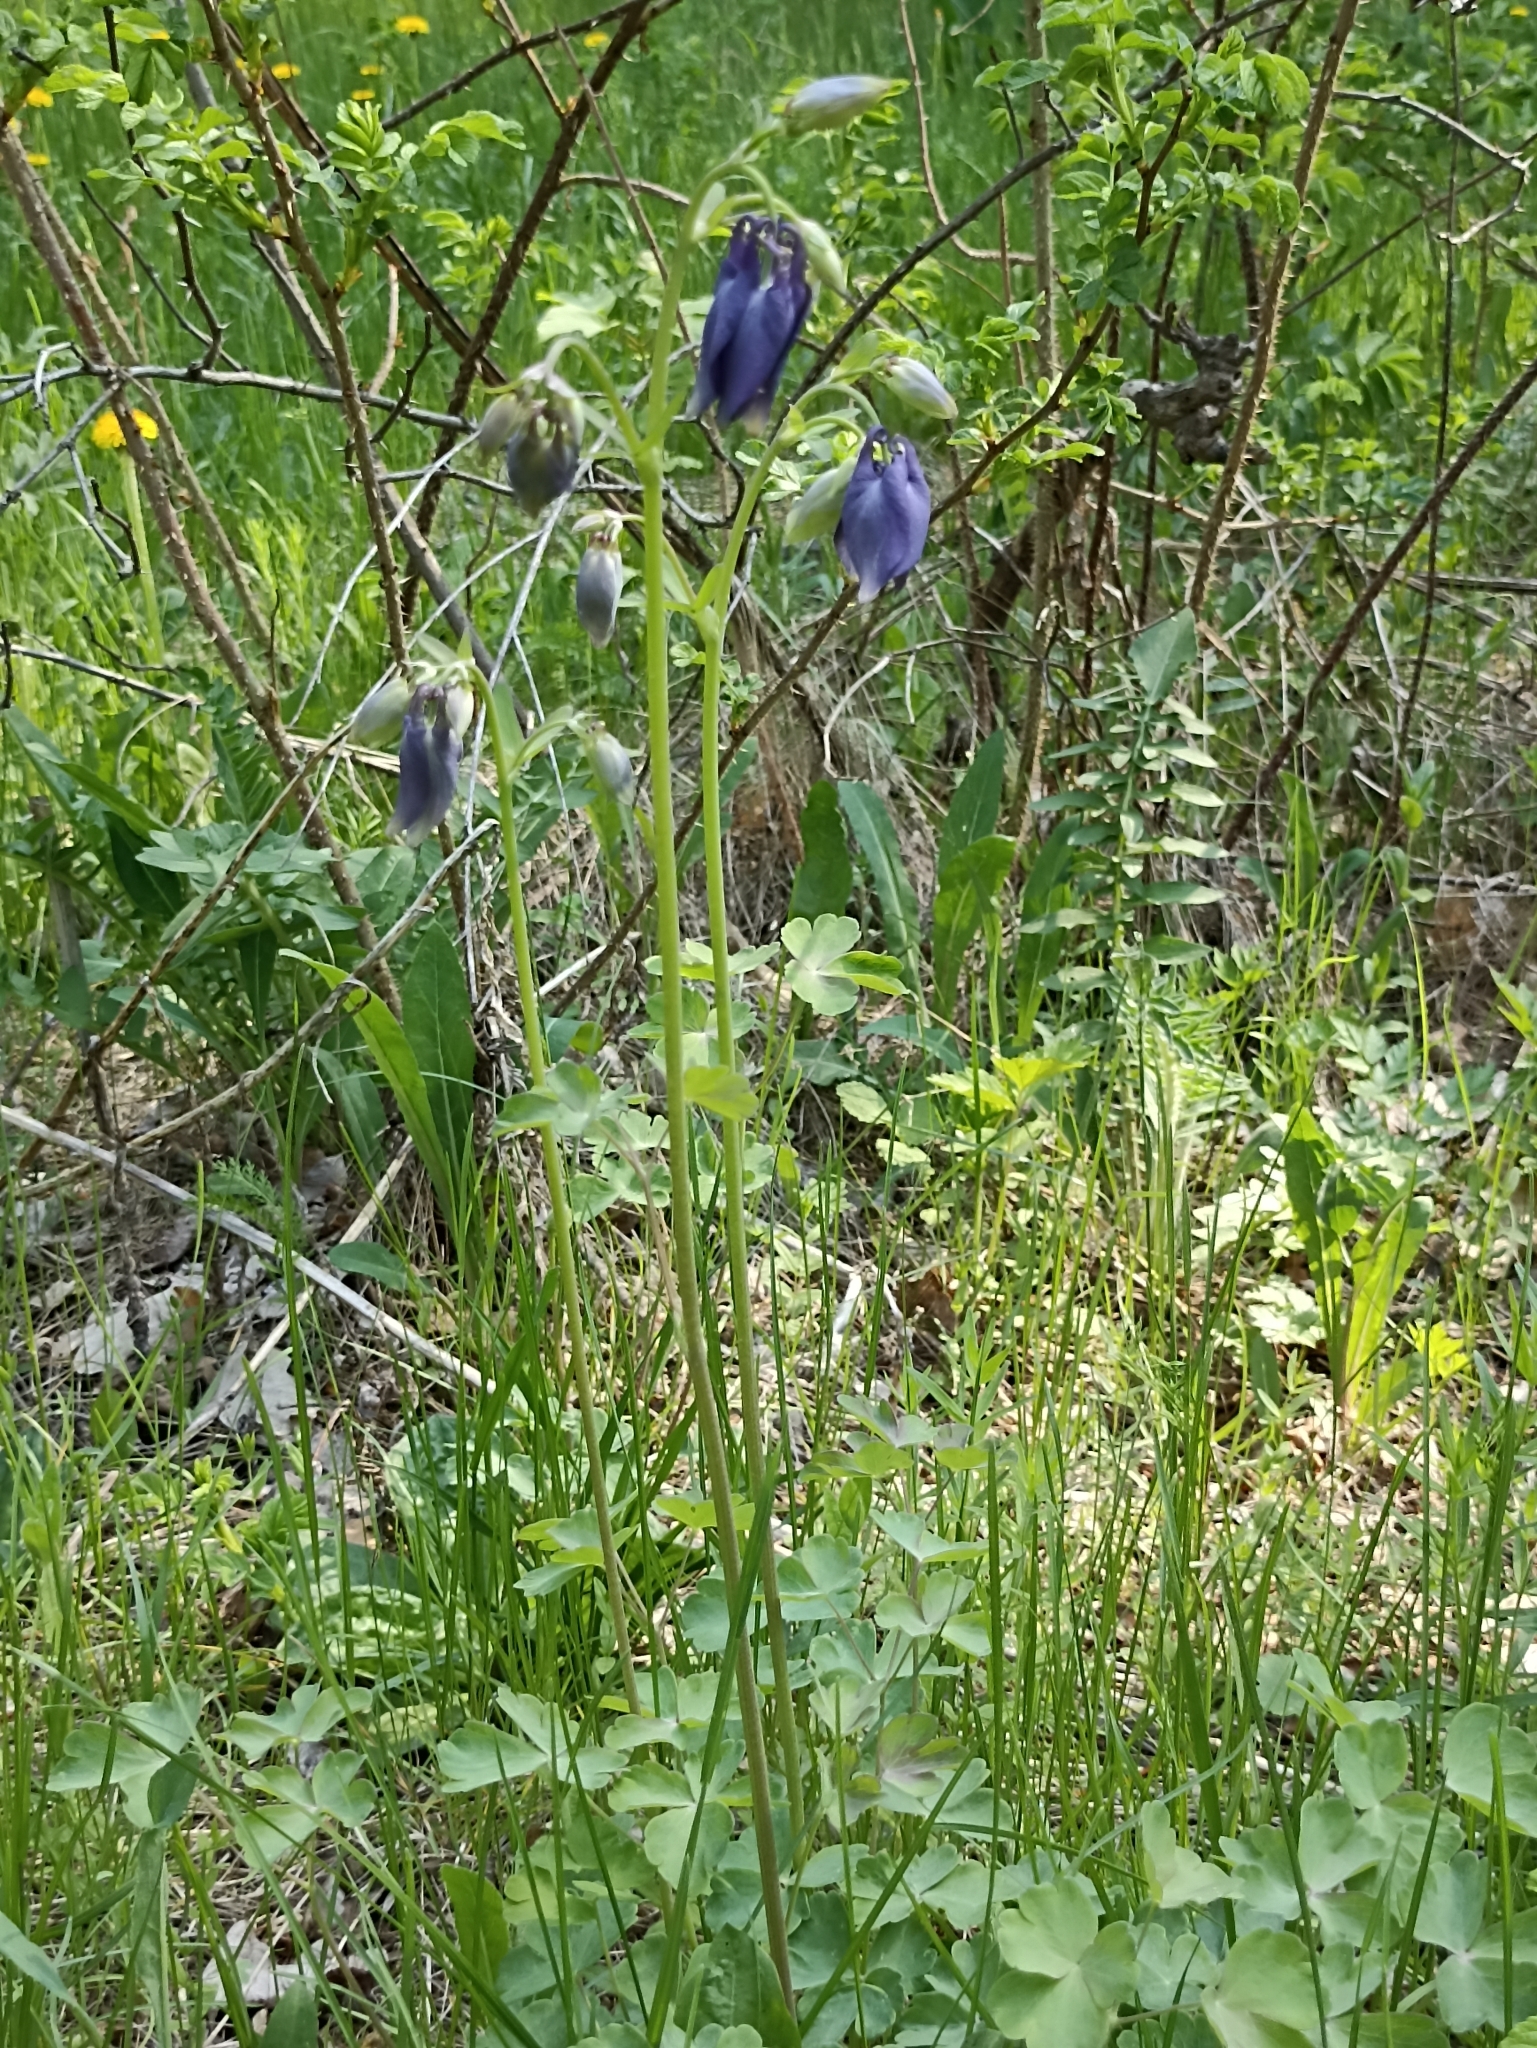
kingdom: Plantae
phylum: Tracheophyta
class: Magnoliopsida
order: Ranunculales
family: Ranunculaceae
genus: Aquilegia
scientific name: Aquilegia sibirica
